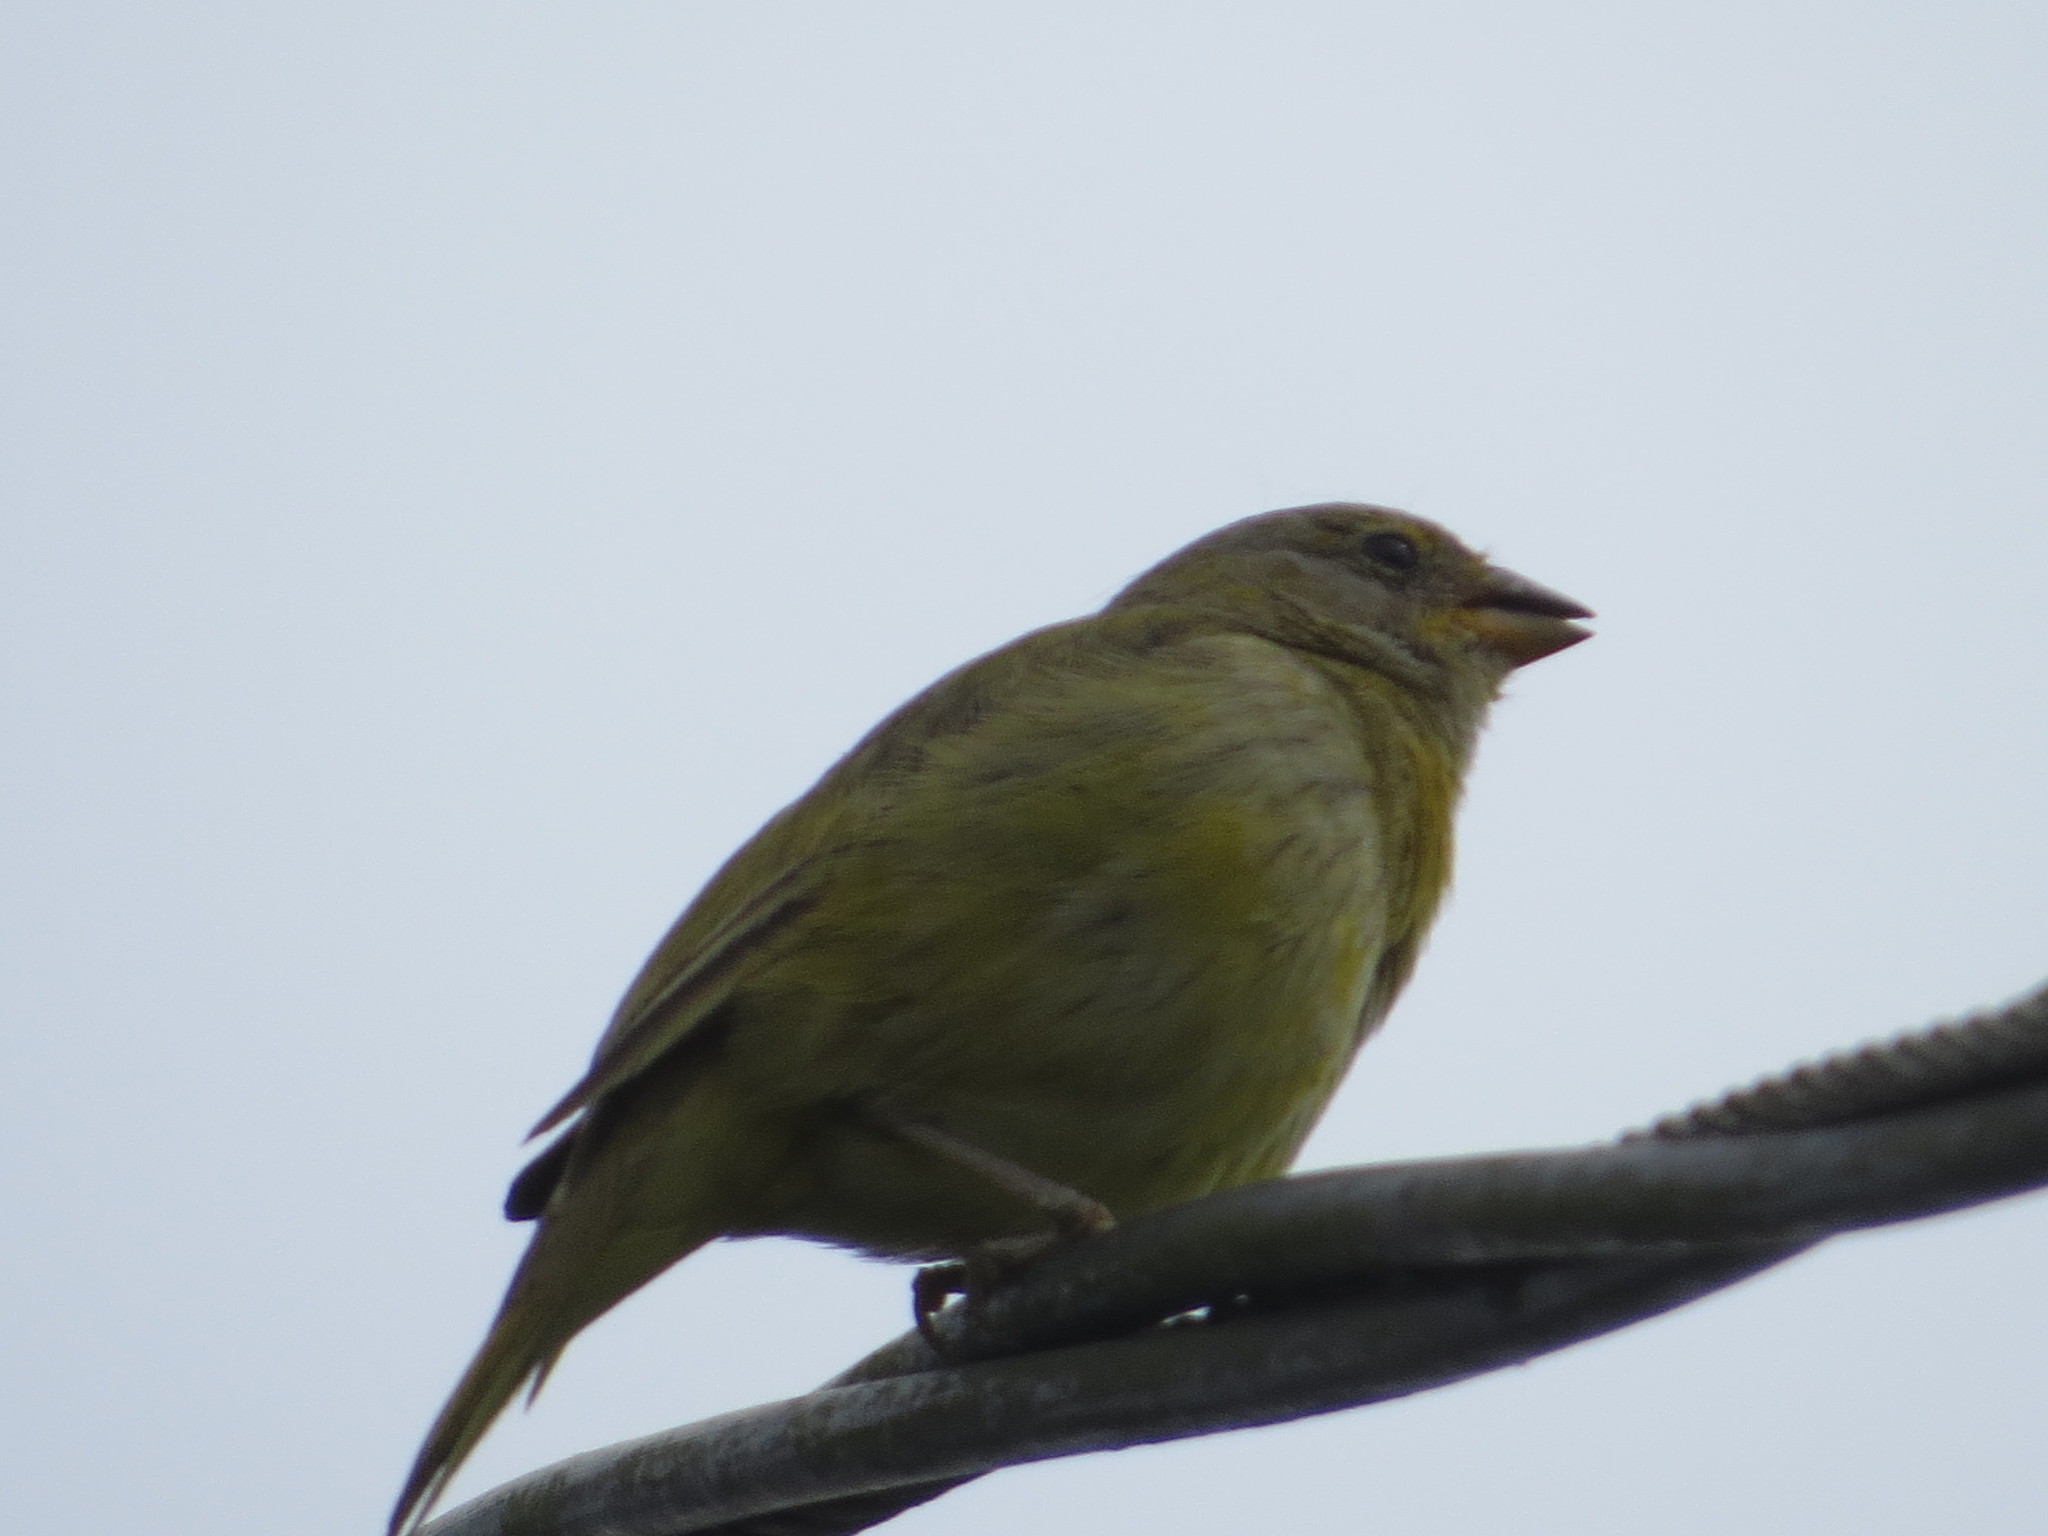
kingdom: Animalia
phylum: Chordata
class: Aves
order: Passeriformes
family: Thraupidae
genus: Sicalis
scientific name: Sicalis flaveola
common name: Saffron finch
